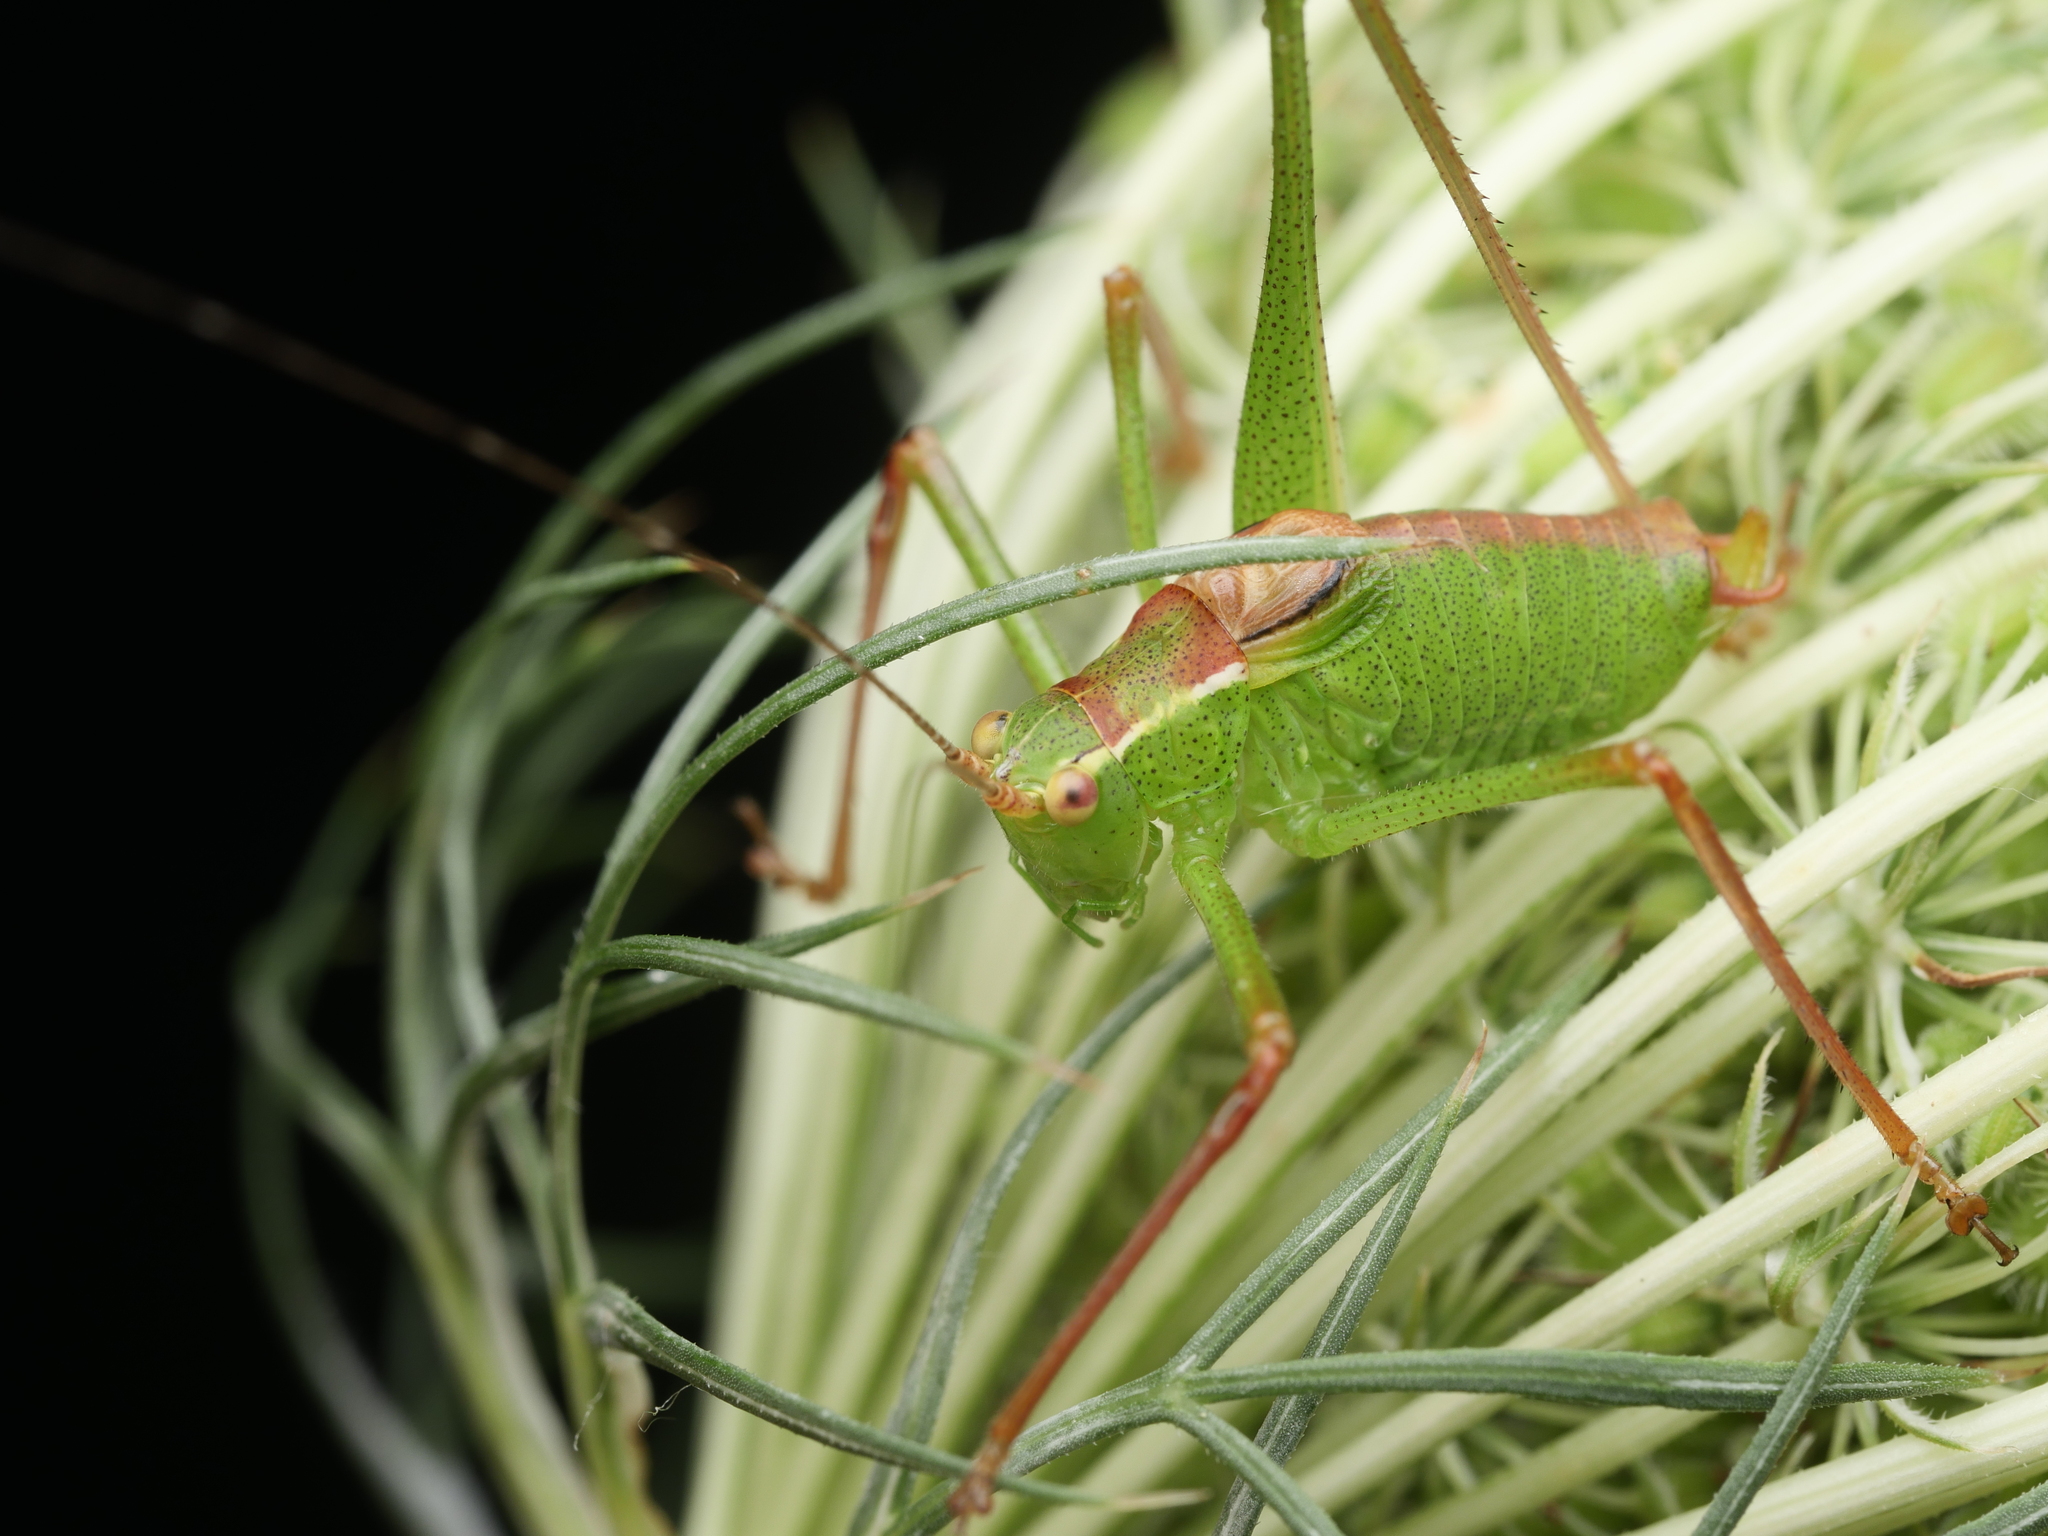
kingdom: Animalia
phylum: Arthropoda
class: Insecta
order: Orthoptera
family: Tettigoniidae
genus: Leptophyes
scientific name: Leptophyes punctatissima
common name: Speckled bush-cricket
